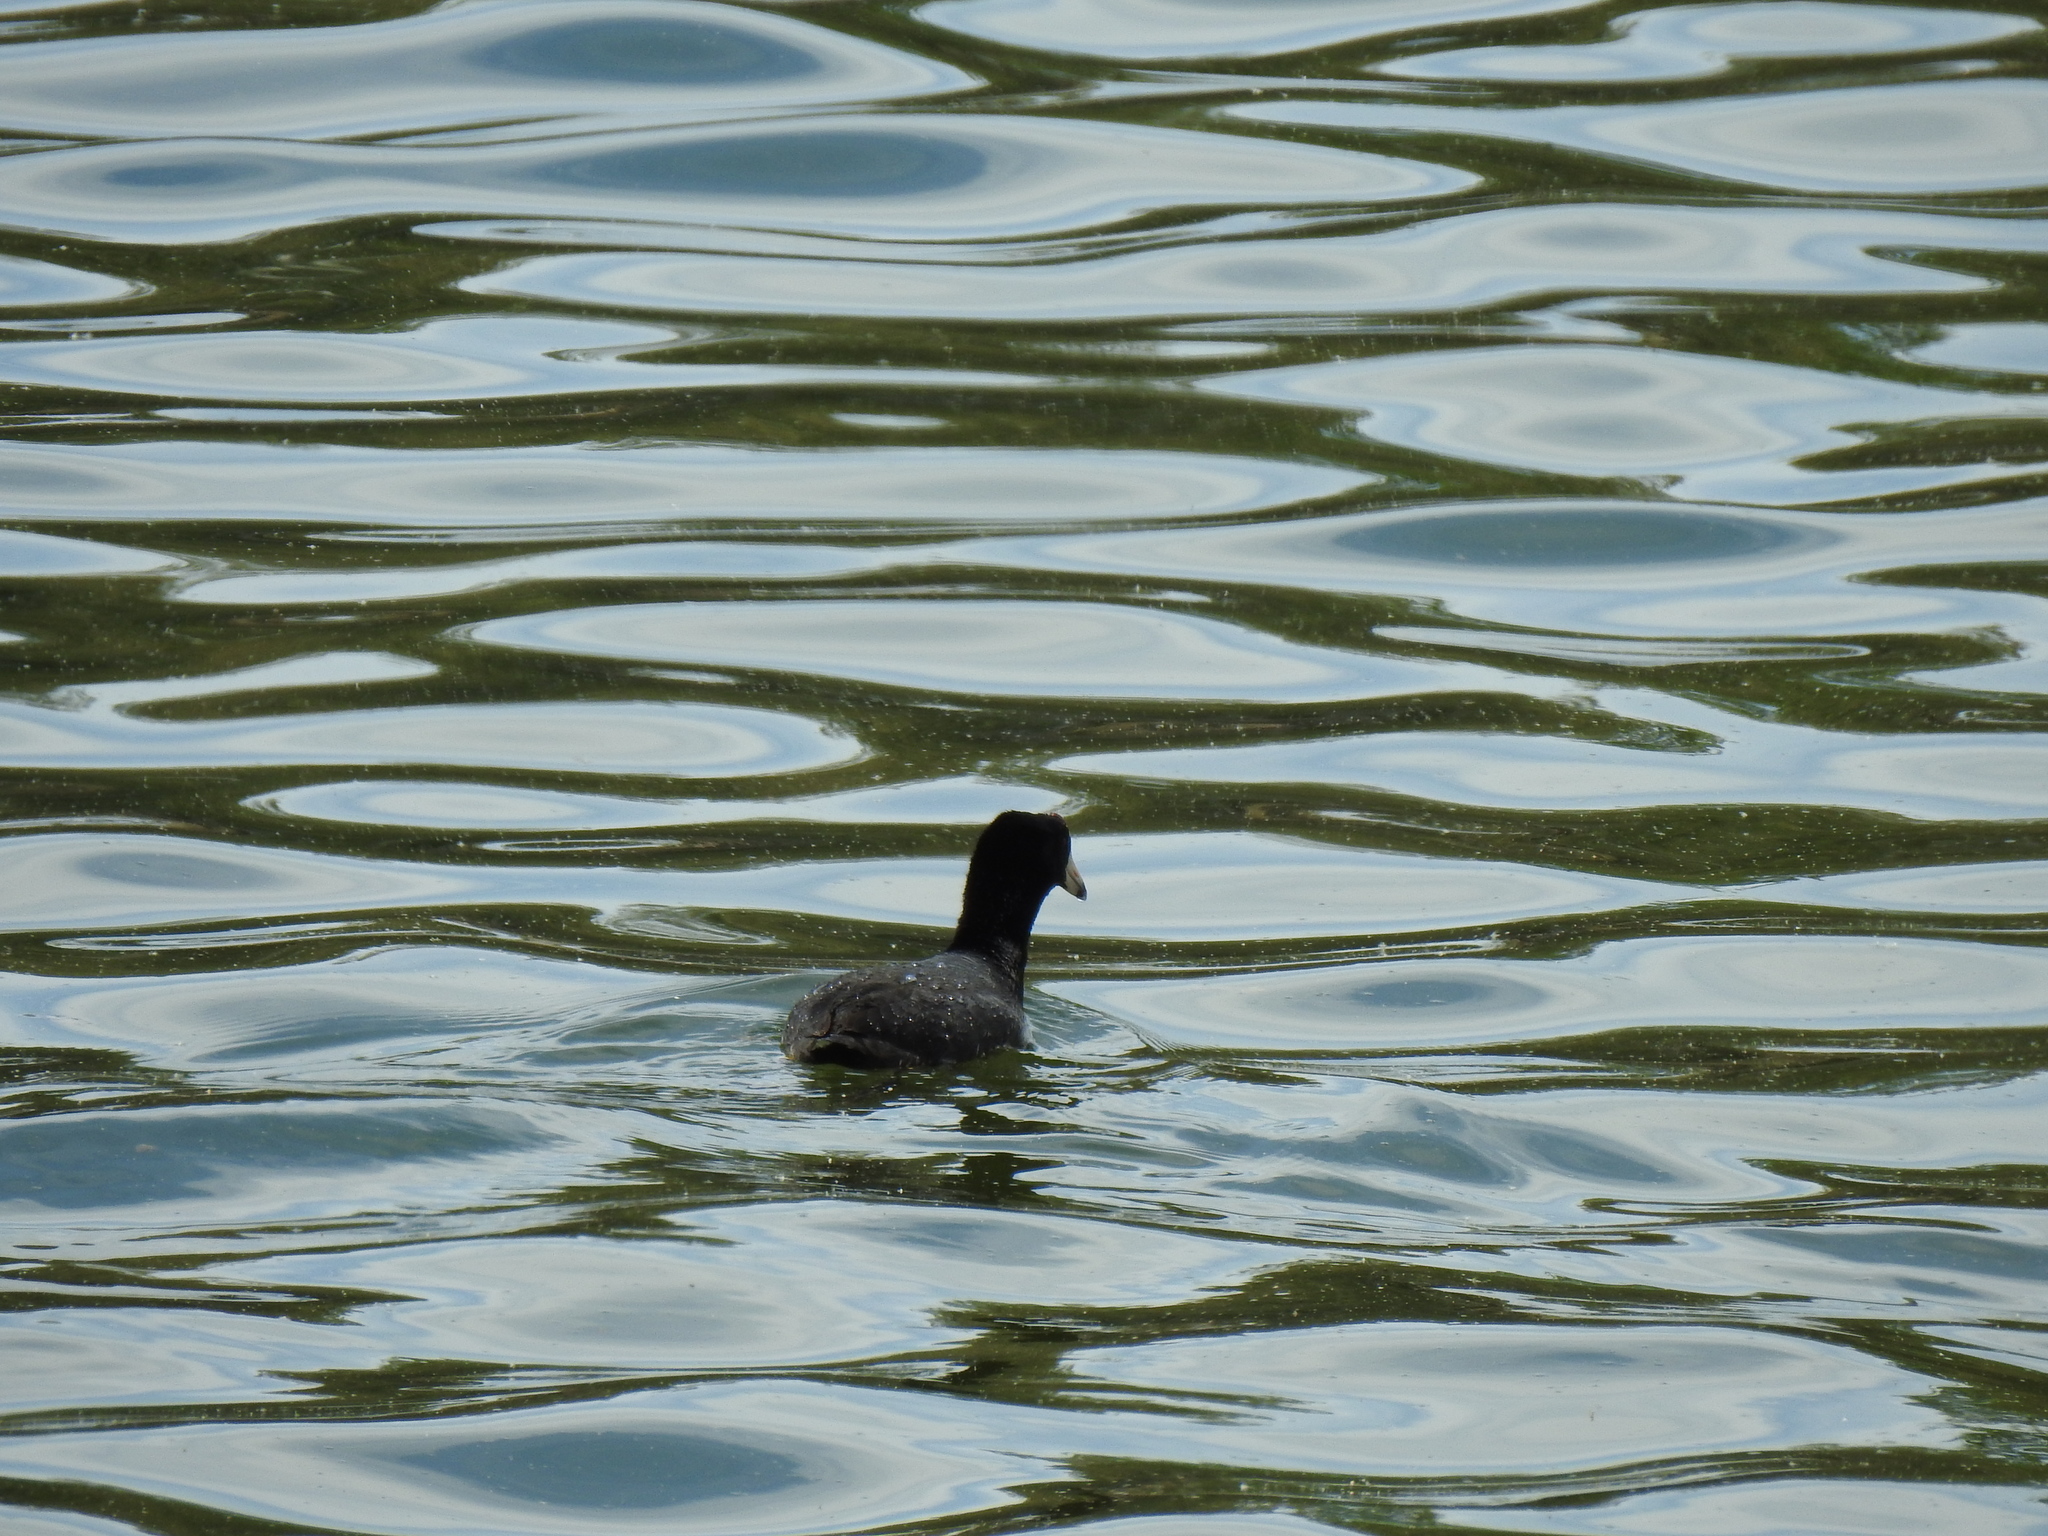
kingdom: Animalia
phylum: Chordata
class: Aves
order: Gruiformes
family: Rallidae
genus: Fulica
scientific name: Fulica americana
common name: American coot
